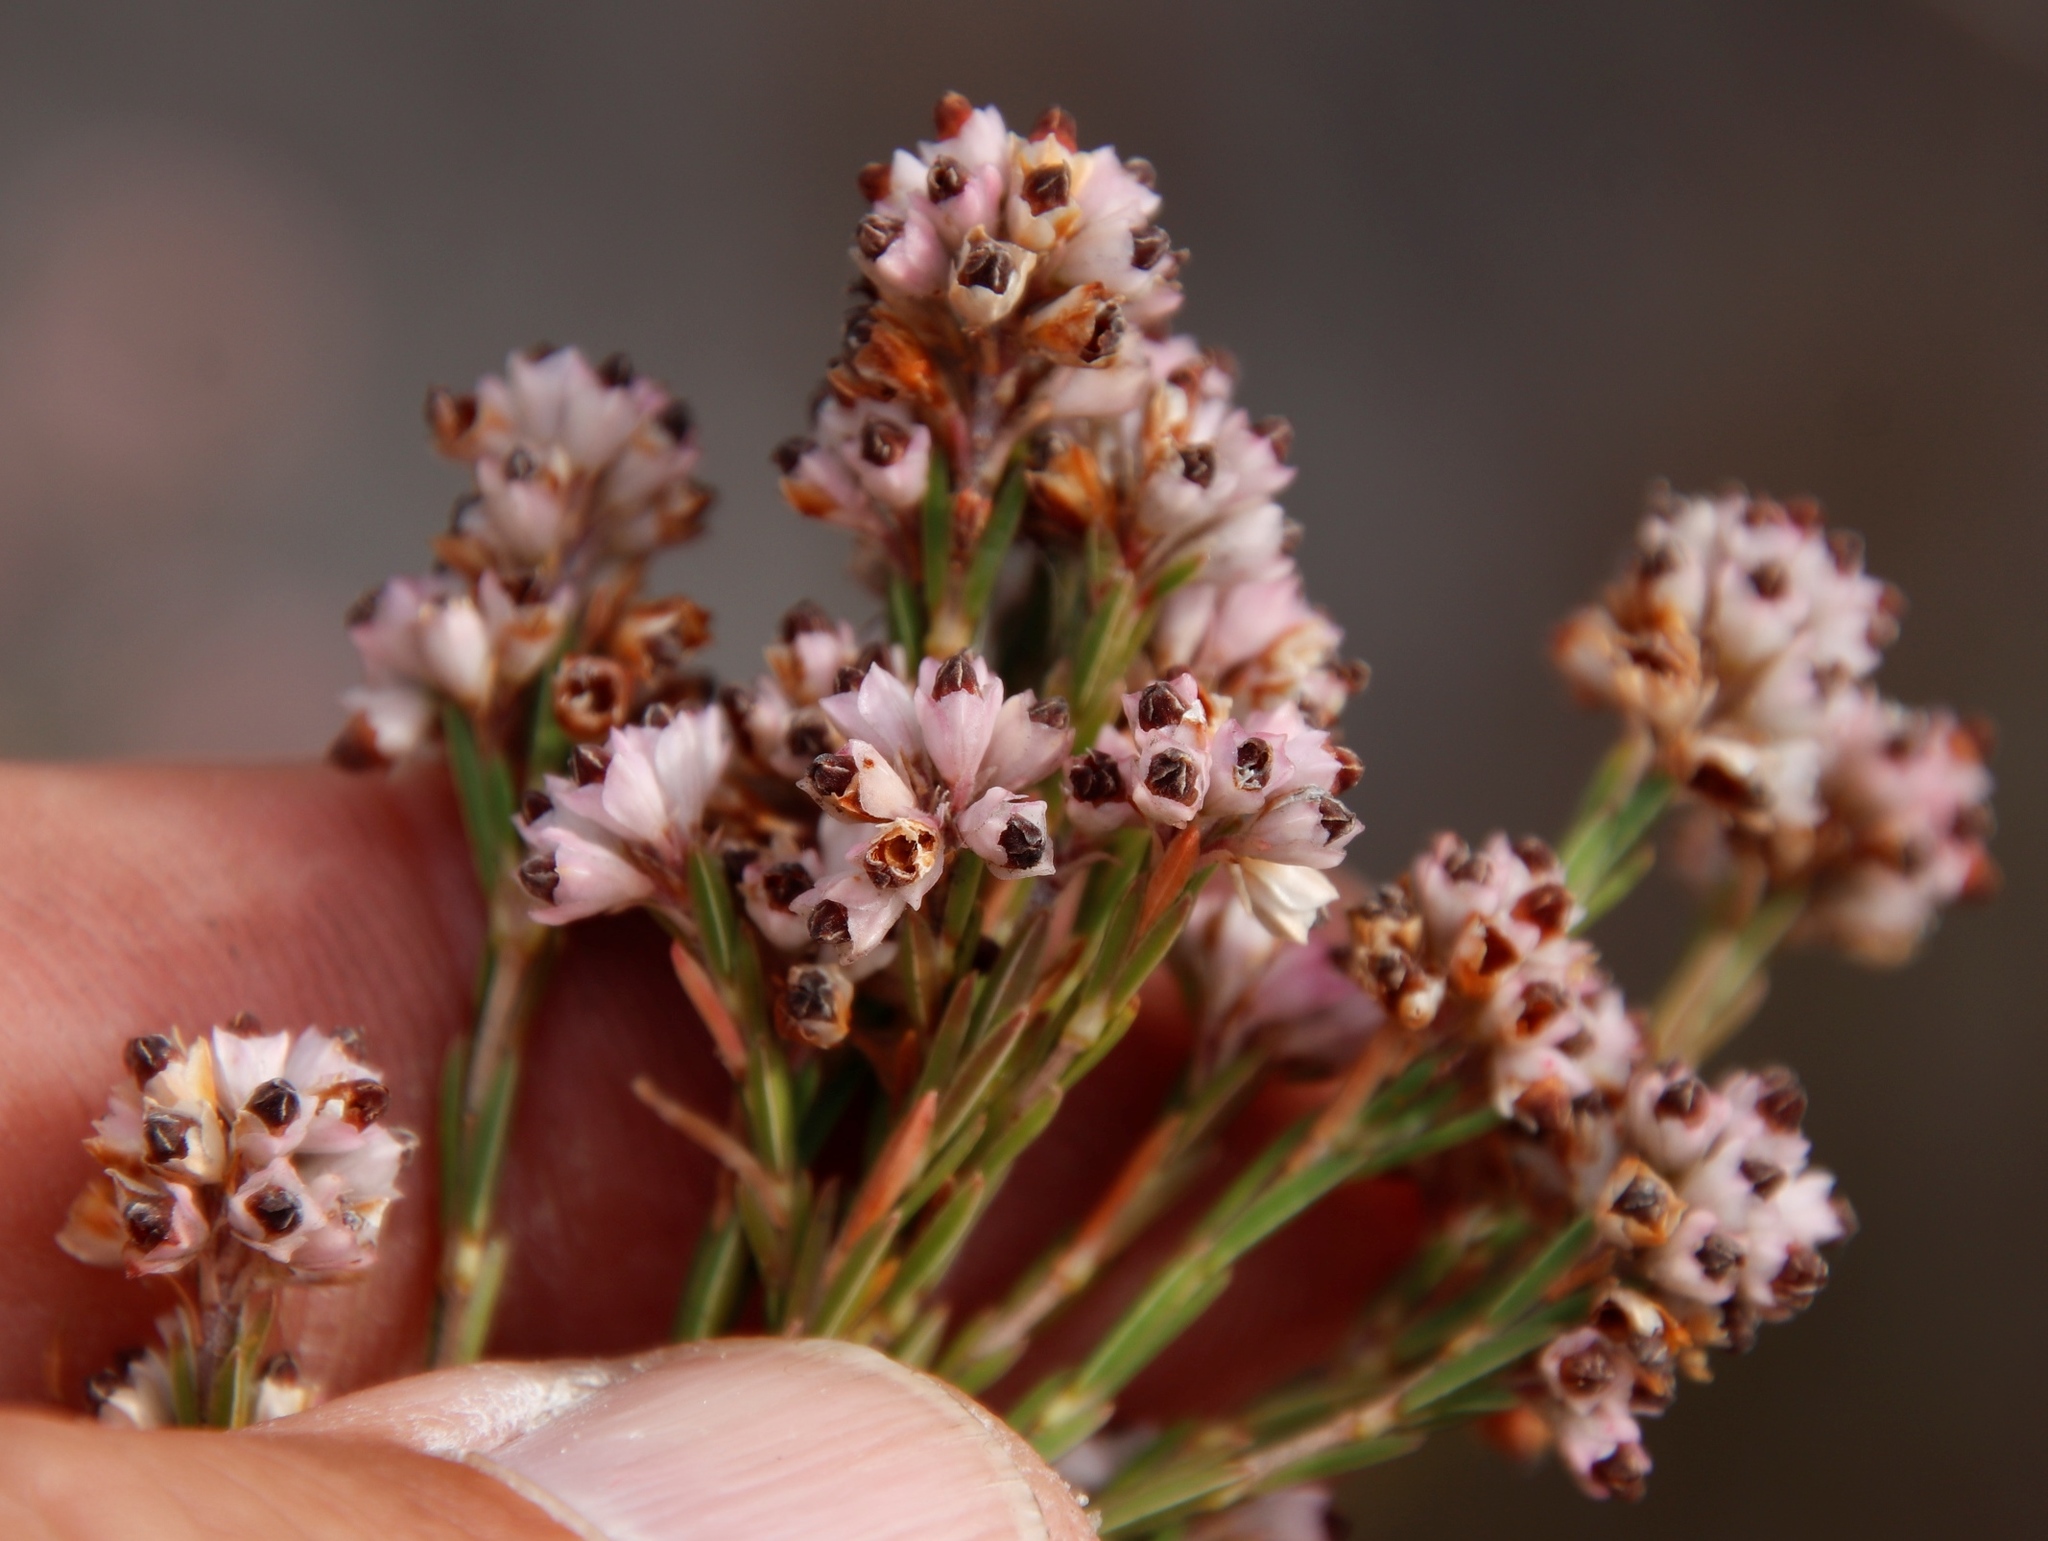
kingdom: Plantae
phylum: Tracheophyta
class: Magnoliopsida
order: Ericales
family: Ericaceae
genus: Erica
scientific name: Erica articularis
